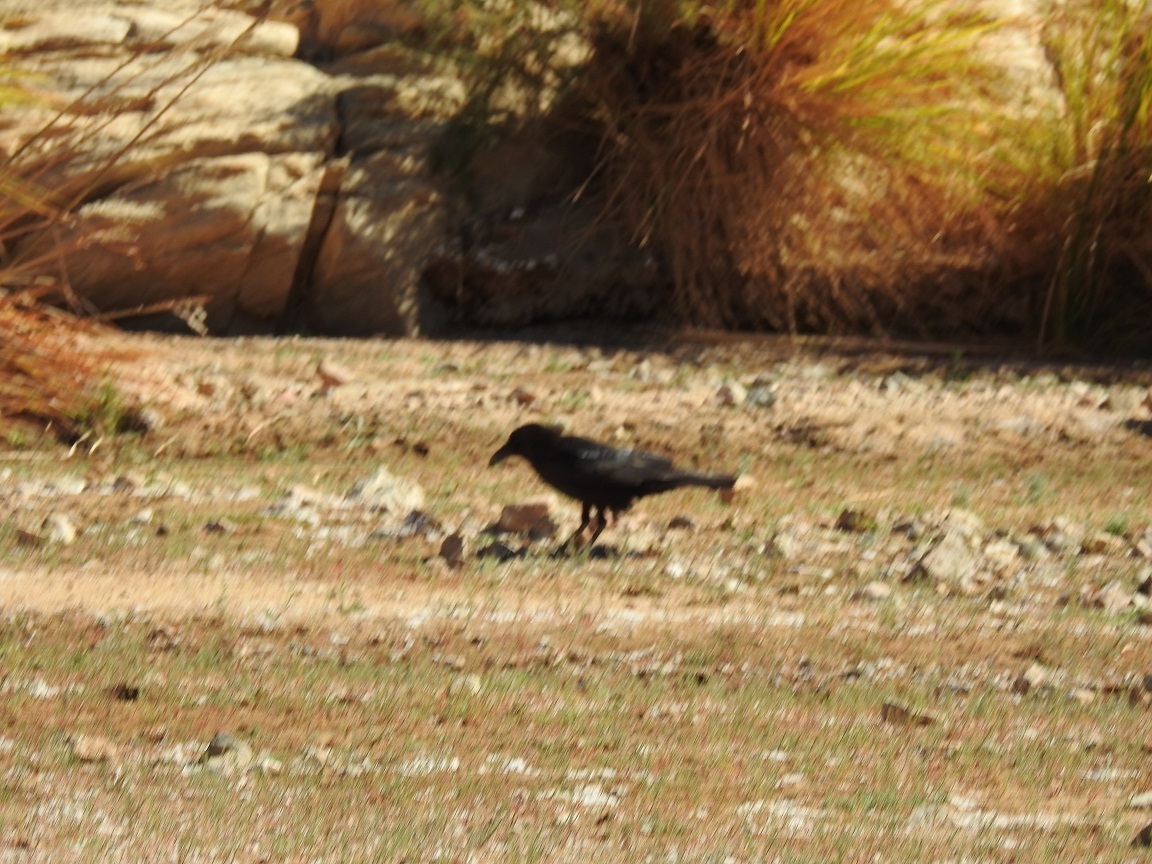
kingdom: Animalia
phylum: Chordata
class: Aves
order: Passeriformes
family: Corvidae
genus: Corvus
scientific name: Corvus ruficollis
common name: Brown-necked raven
